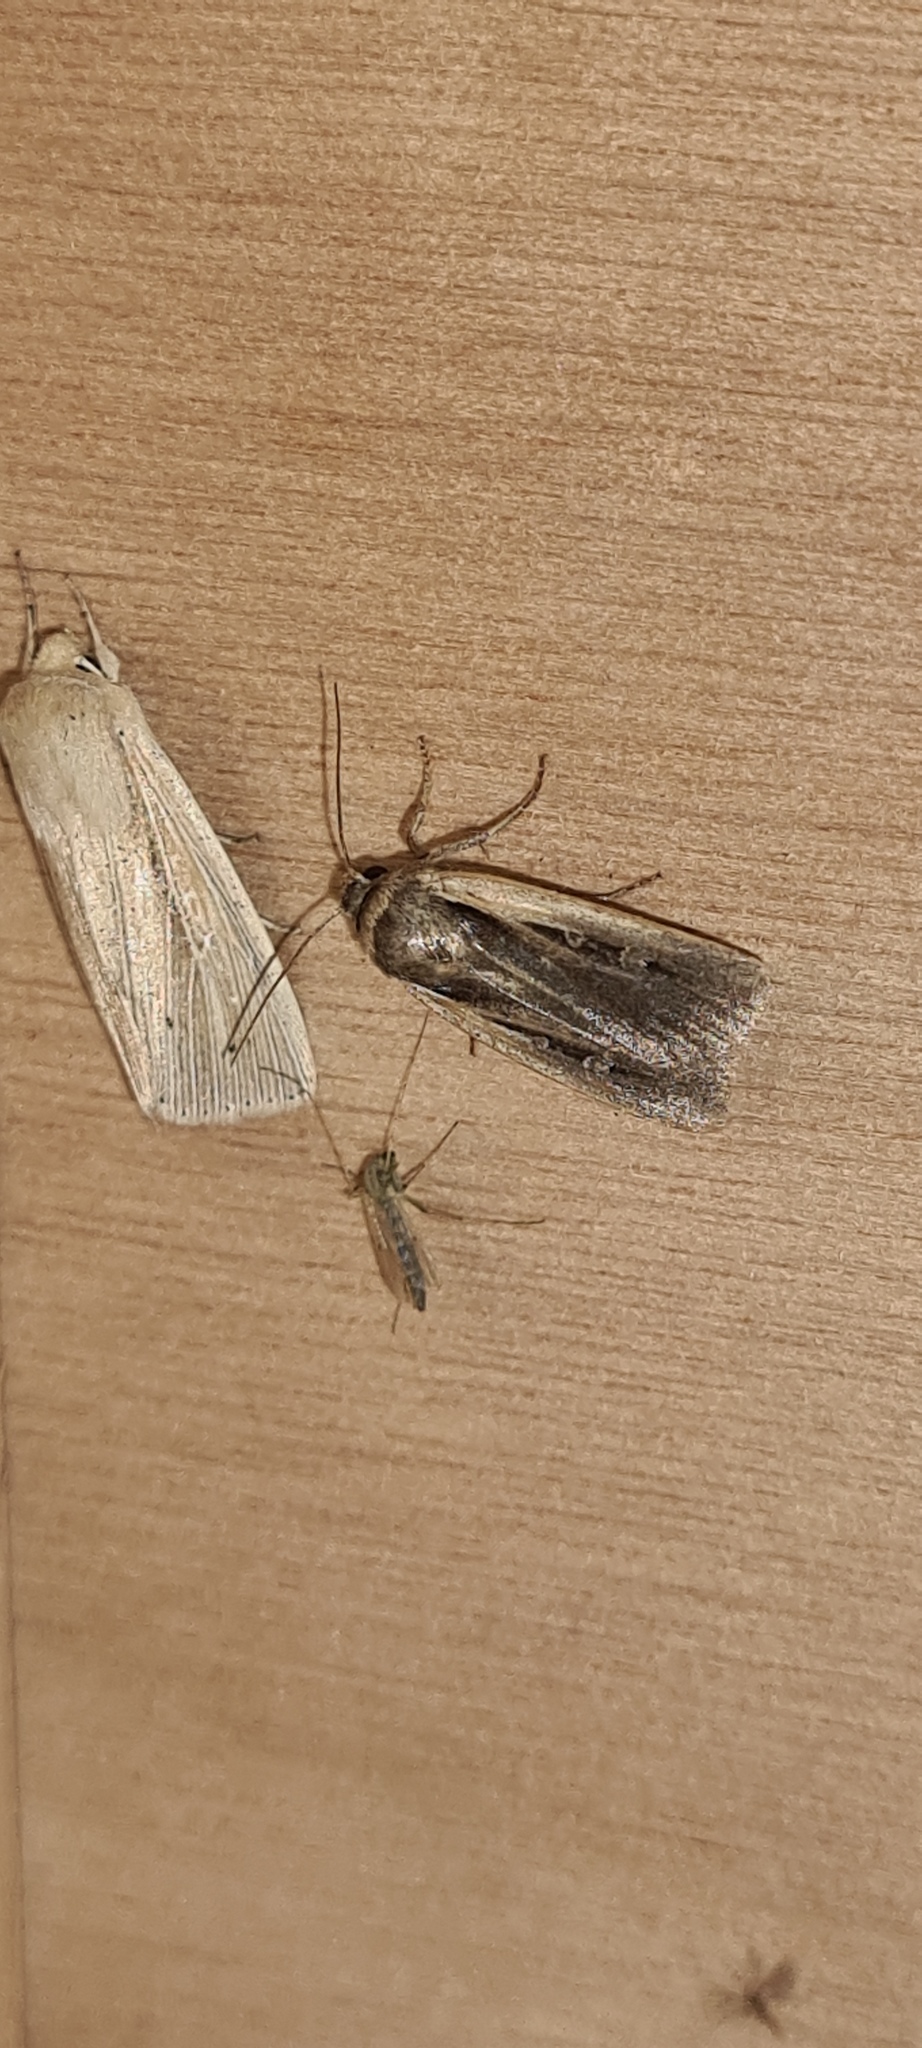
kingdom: Animalia
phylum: Arthropoda
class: Insecta
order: Lepidoptera
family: Noctuidae
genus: Ochropleura
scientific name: Ochropleura plecta
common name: Flame shoulder
